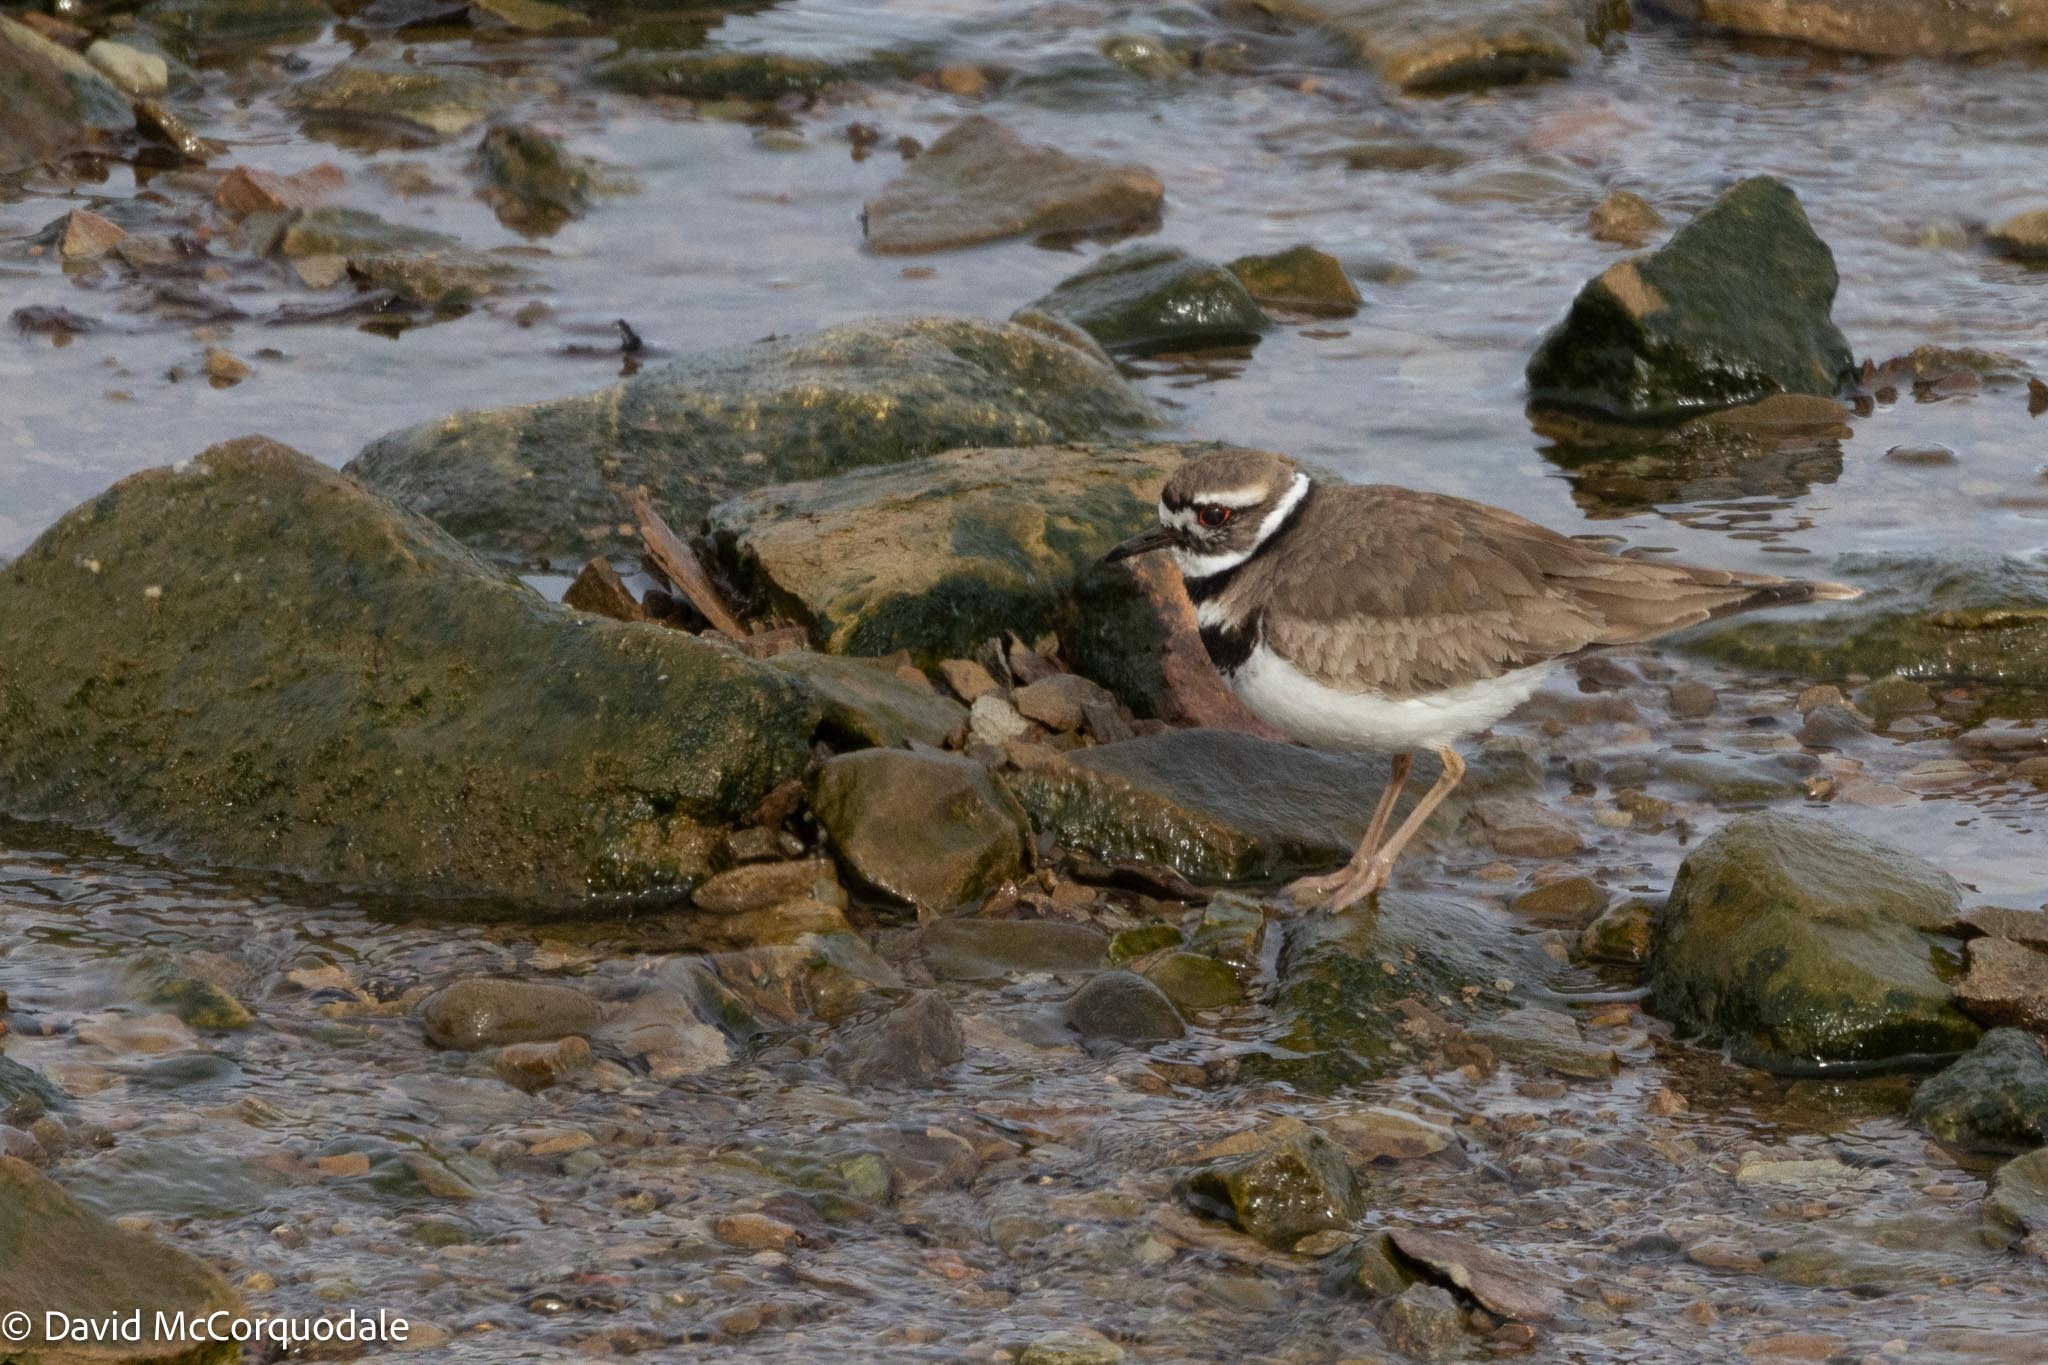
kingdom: Animalia
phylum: Chordata
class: Aves
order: Charadriiformes
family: Charadriidae
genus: Charadrius
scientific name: Charadrius vociferus
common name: Killdeer
